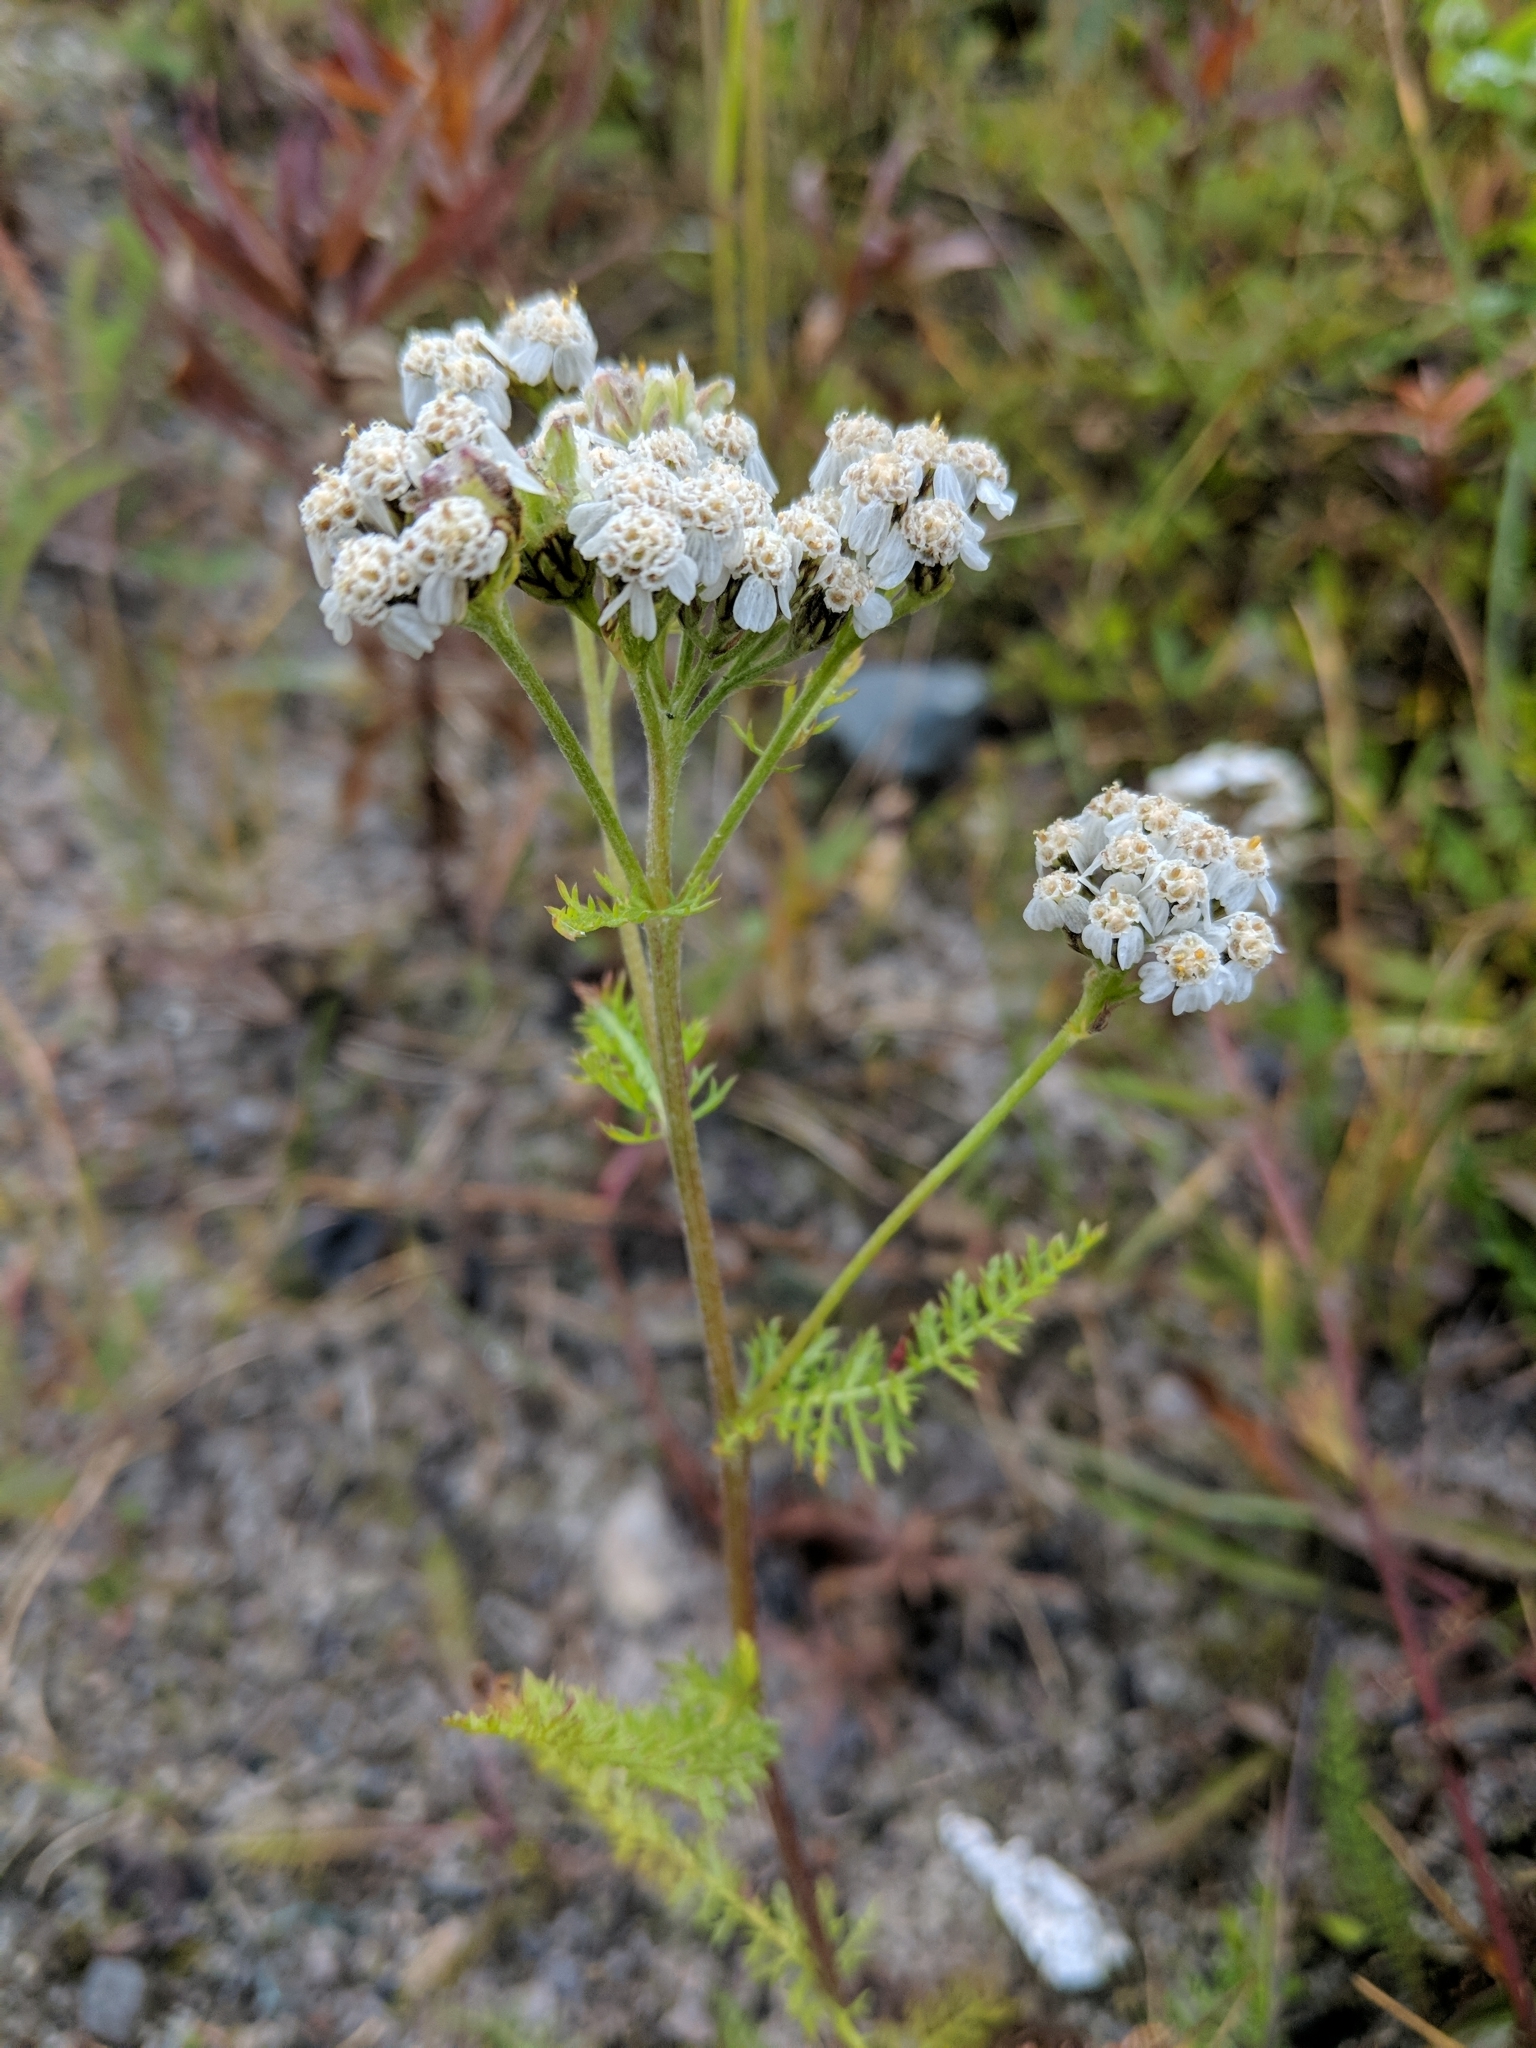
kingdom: Plantae
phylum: Tracheophyta
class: Magnoliopsida
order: Asterales
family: Asteraceae
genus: Achillea
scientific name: Achillea millefolium
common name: Yarrow
